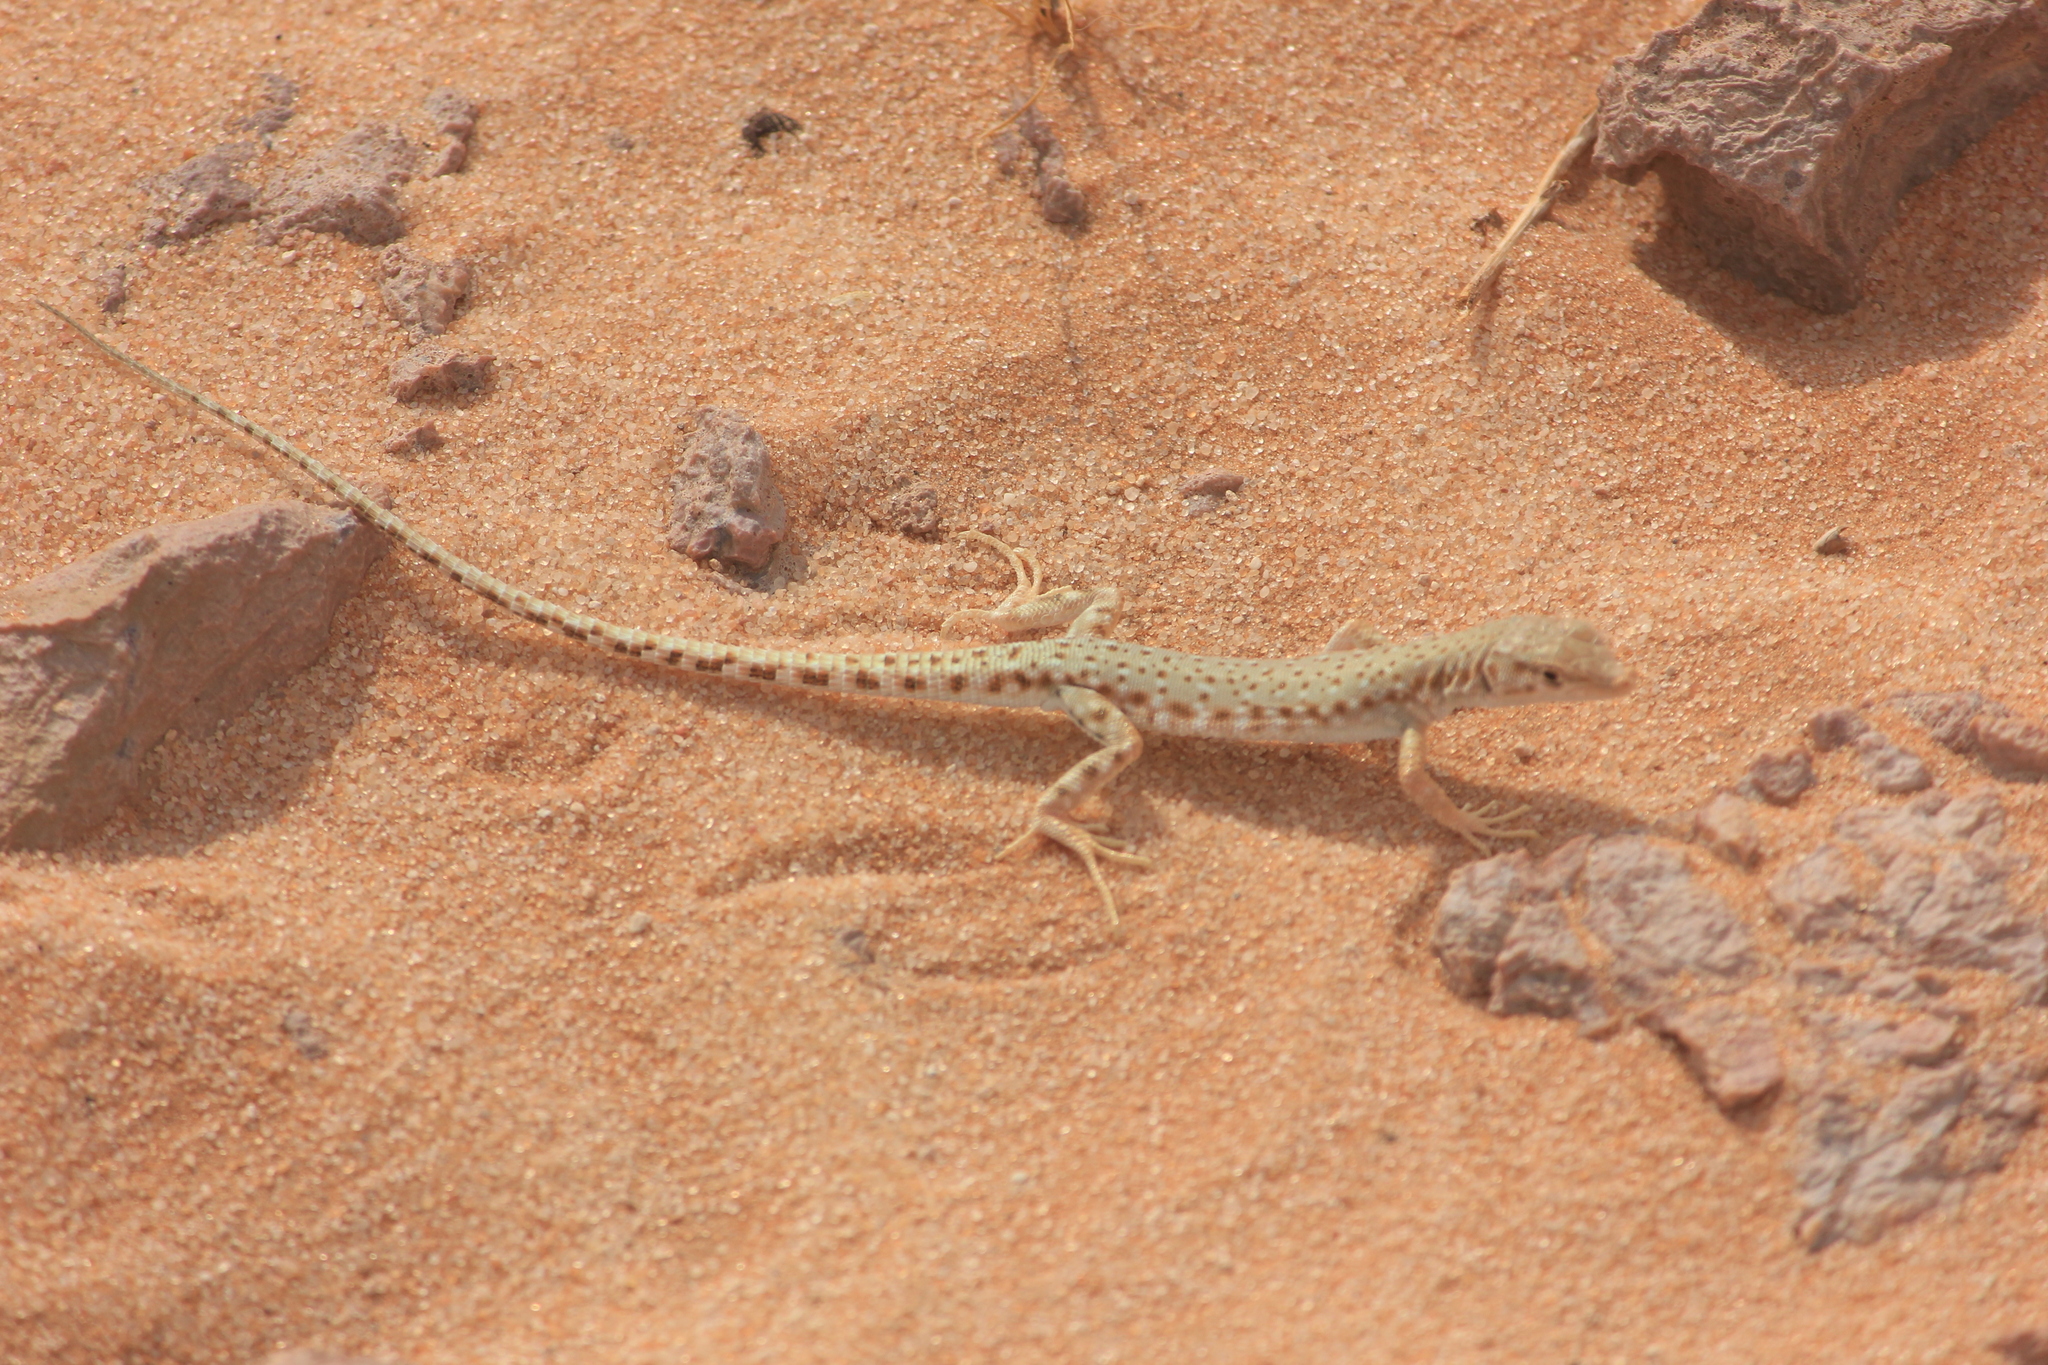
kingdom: Animalia
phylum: Chordata
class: Squamata
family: Lacertidae
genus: Mesalina
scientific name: Mesalina brevirostris
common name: Blanford's short-nosed desert lizard
